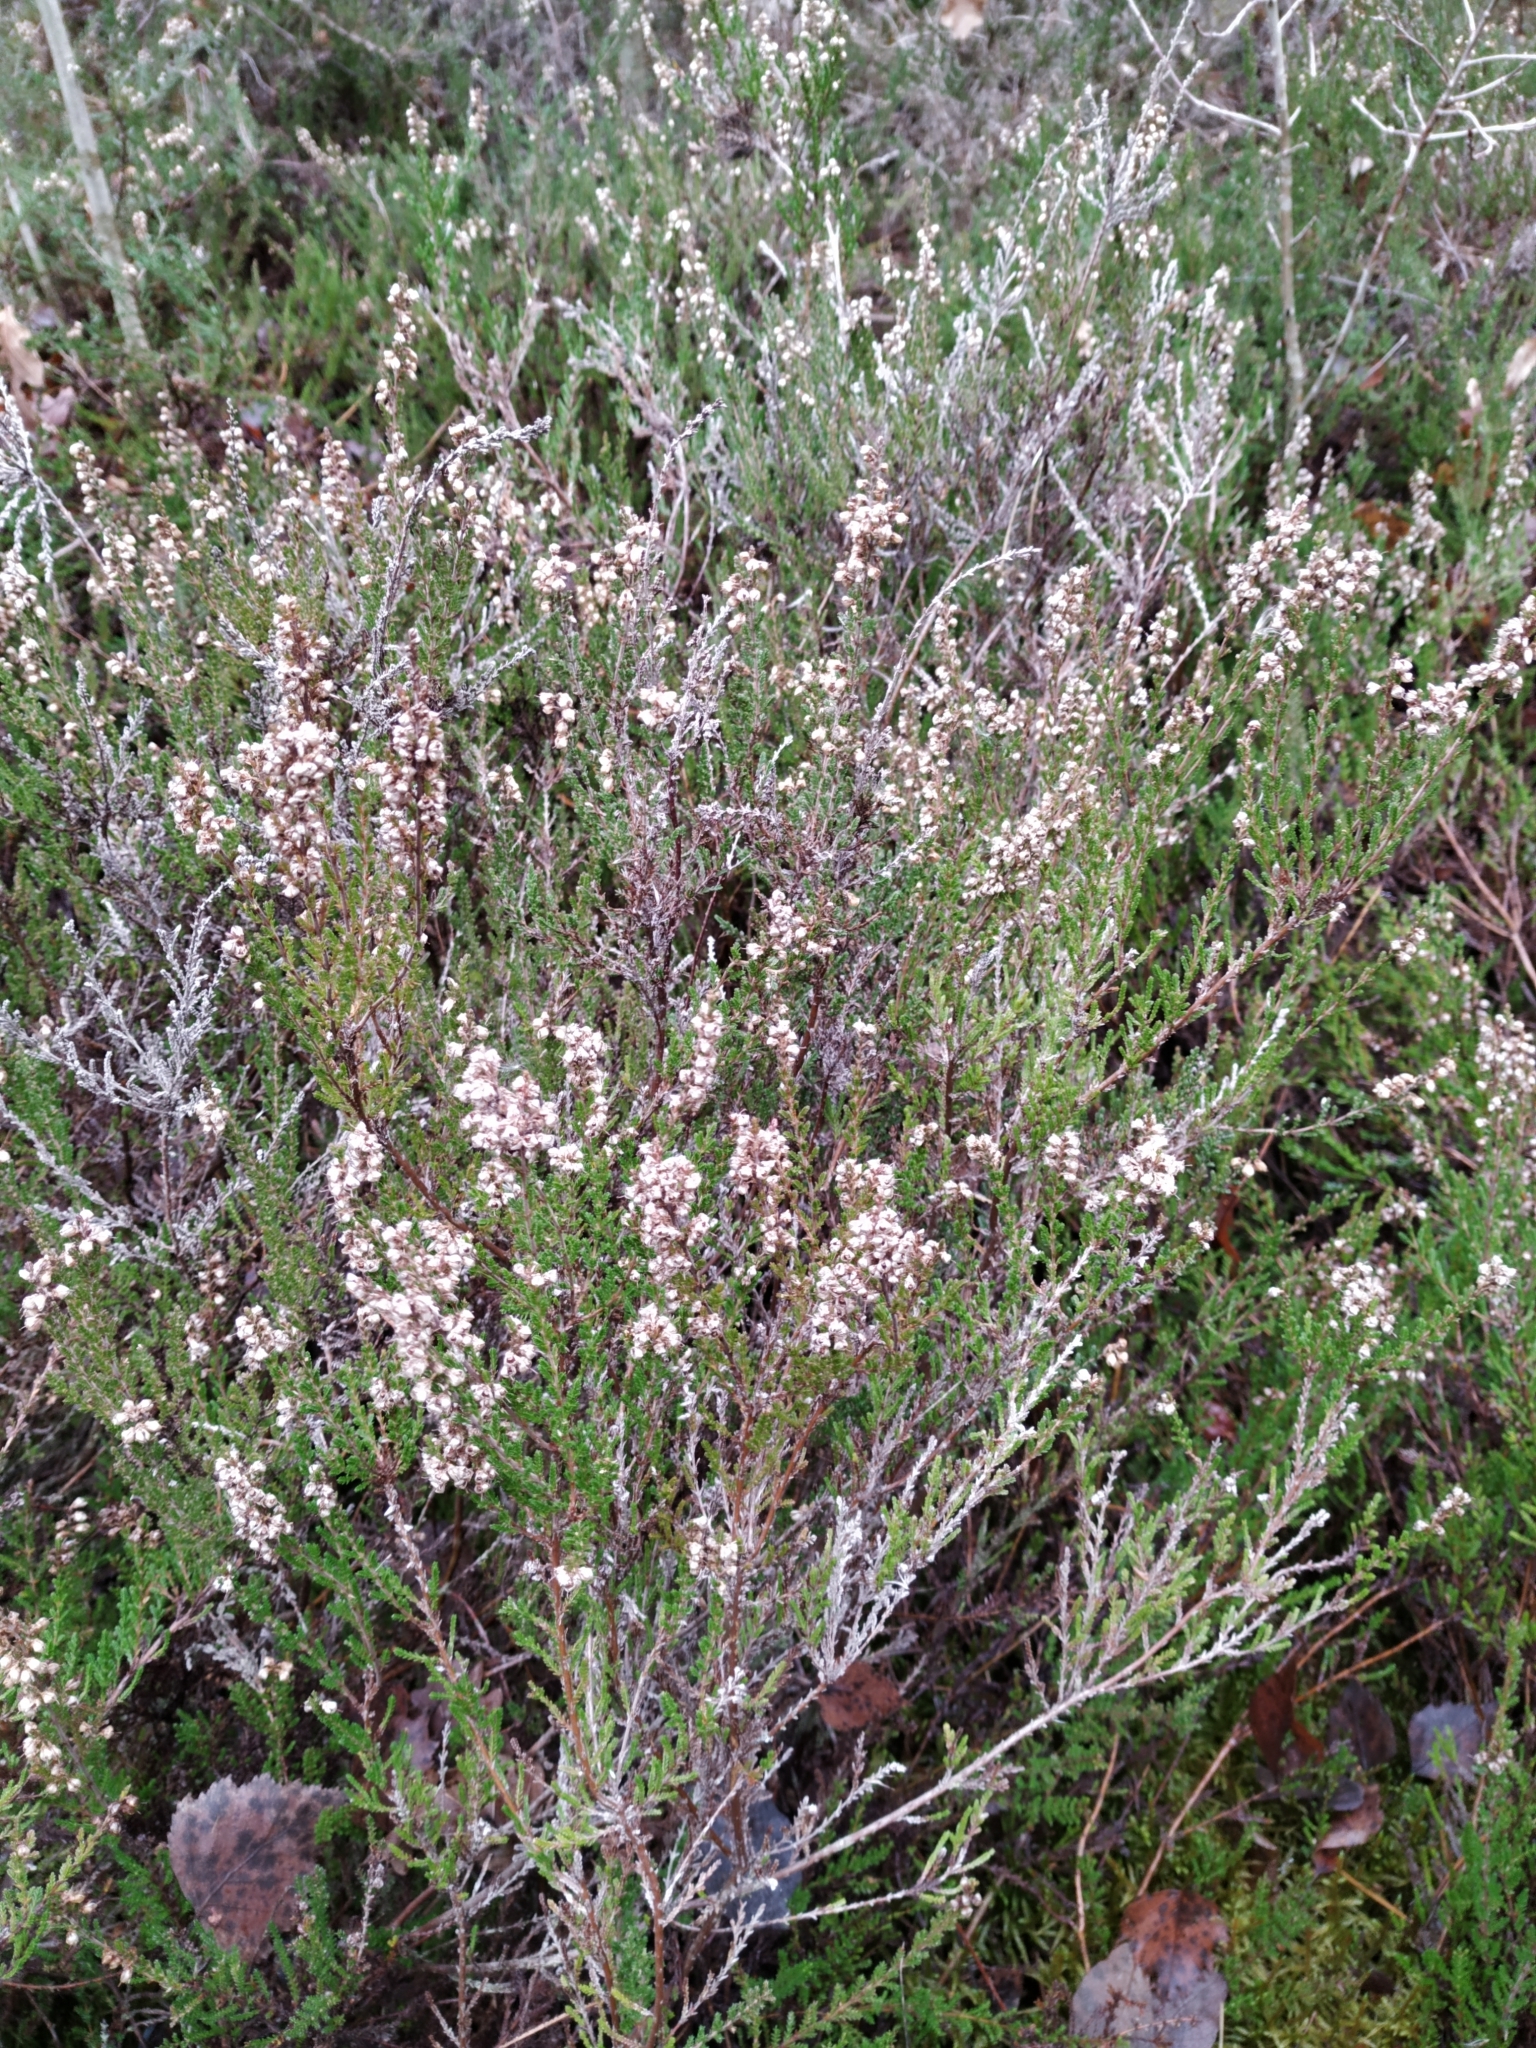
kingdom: Plantae
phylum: Tracheophyta
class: Magnoliopsida
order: Ericales
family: Ericaceae
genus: Calluna
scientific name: Calluna vulgaris
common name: Heather
